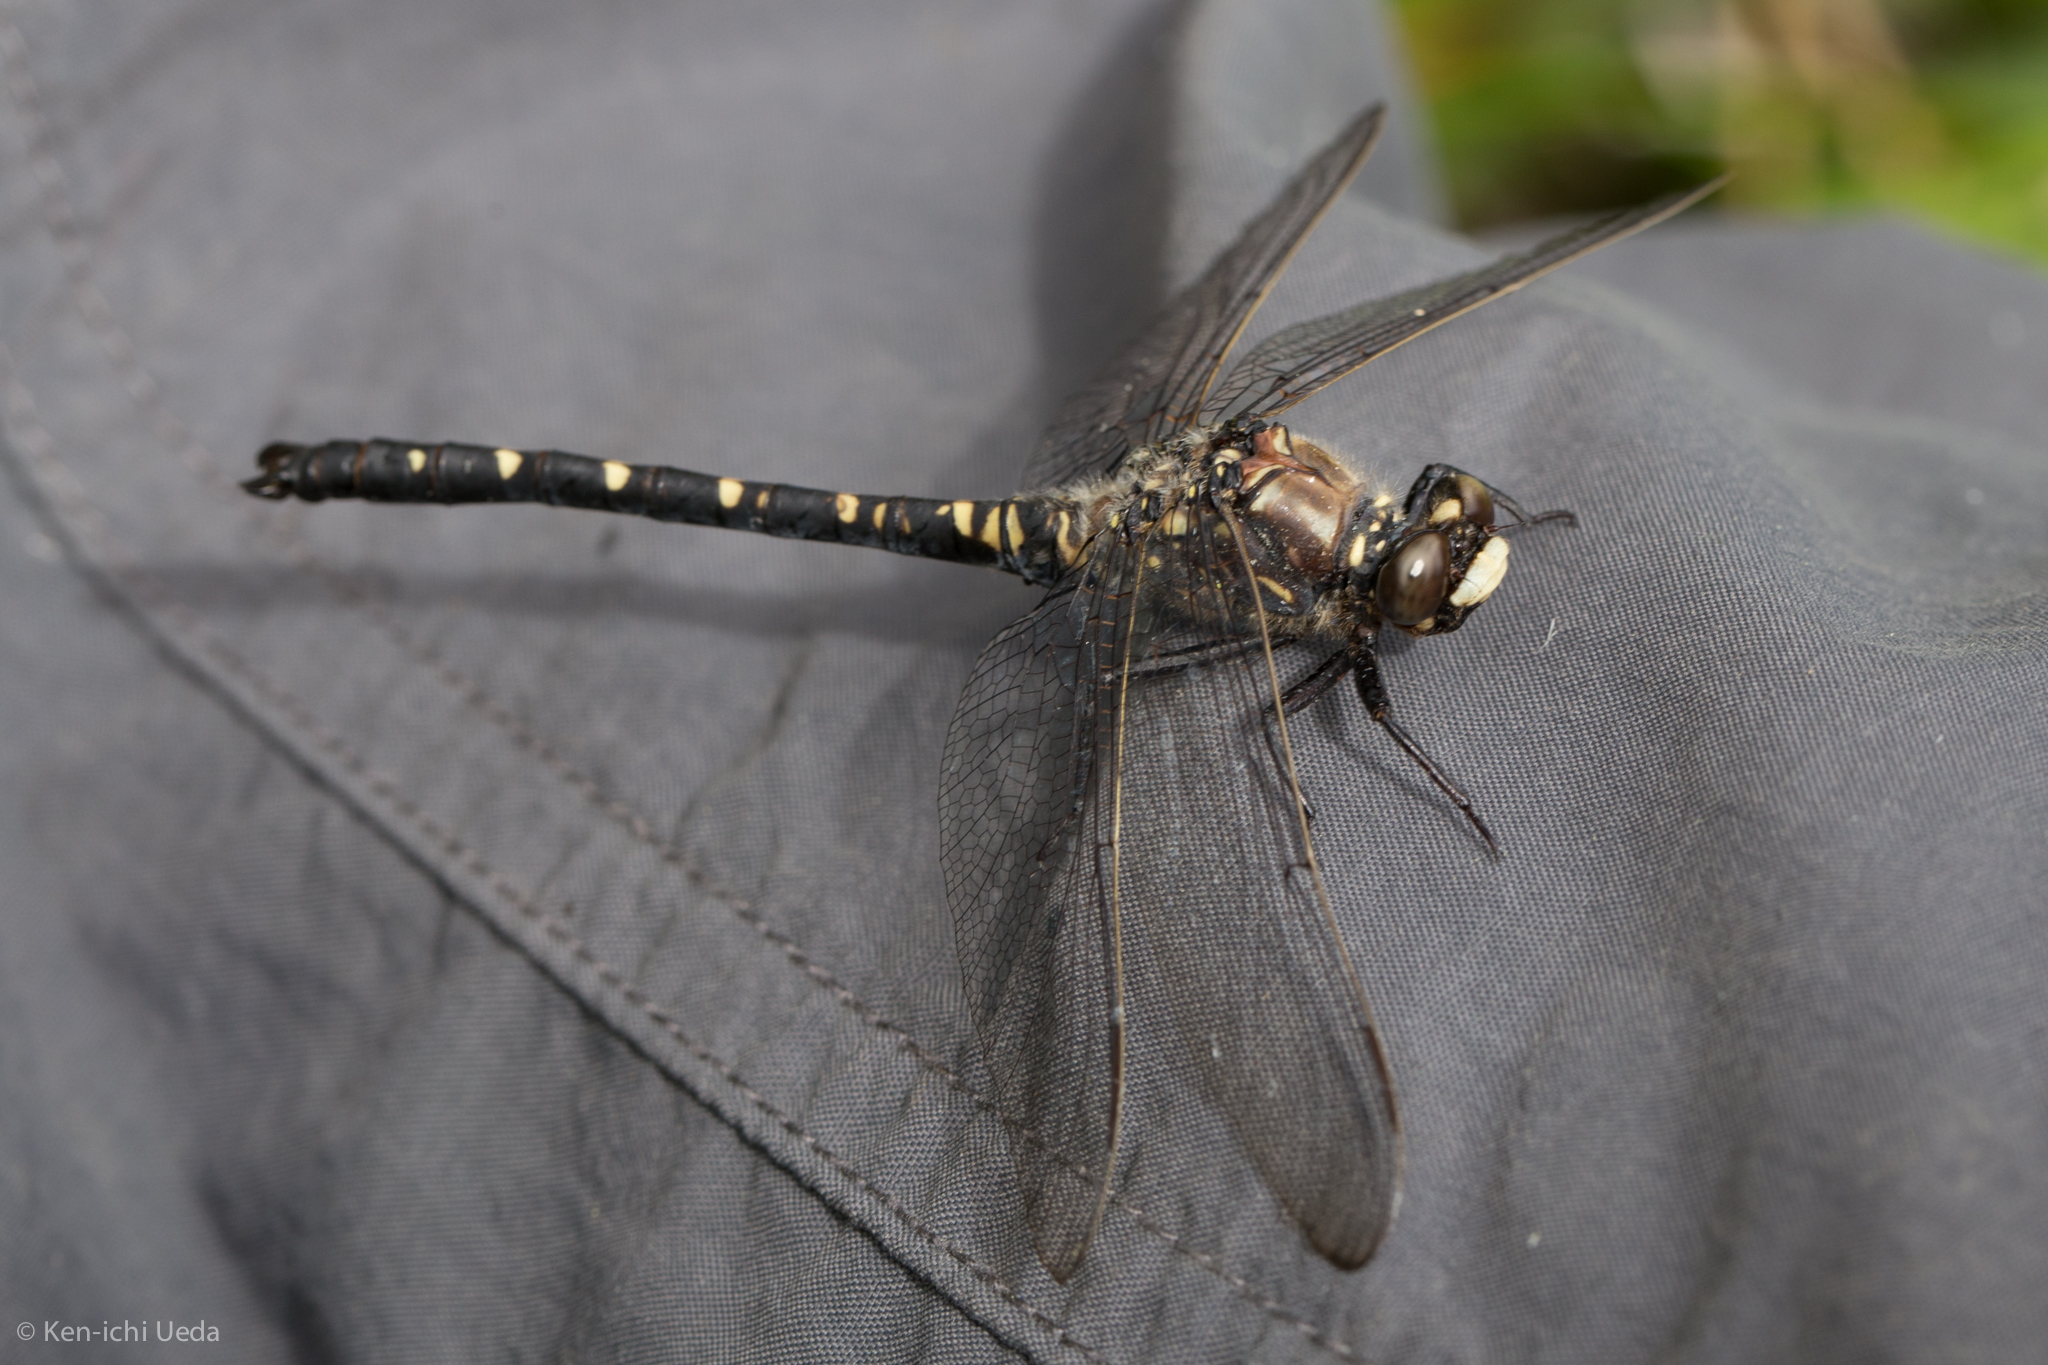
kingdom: Animalia
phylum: Arthropoda
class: Insecta
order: Odonata
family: Petaluridae
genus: Tanypteryx
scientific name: Tanypteryx hageni
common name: Black petaltail
